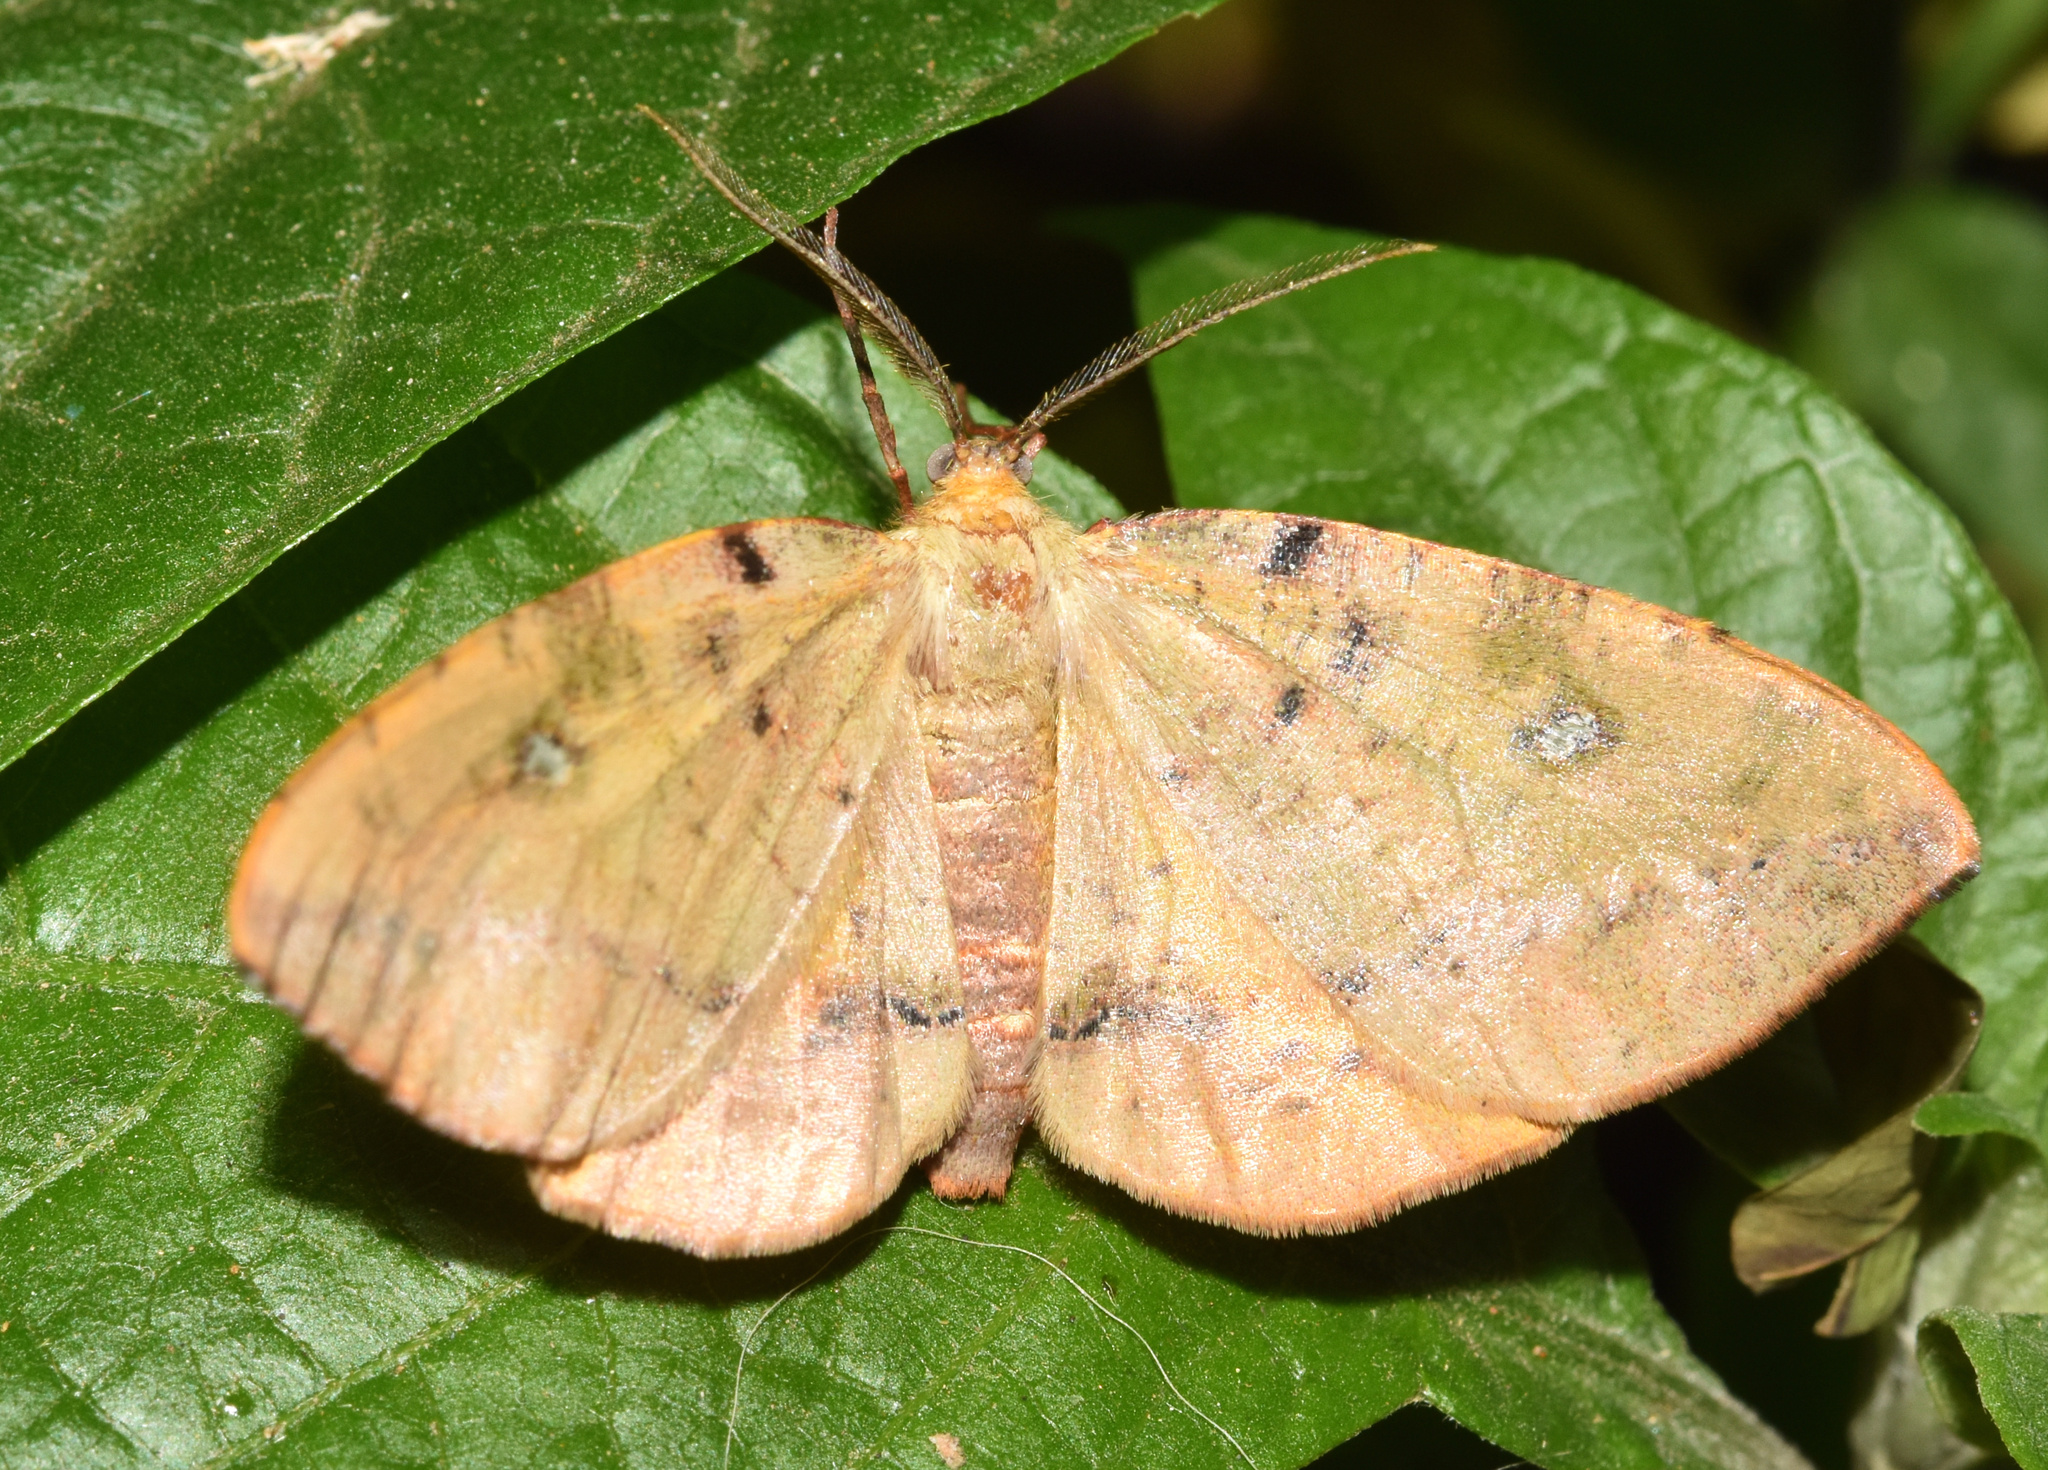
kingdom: Animalia
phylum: Arthropoda
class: Insecta
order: Lepidoptera
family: Geometridae
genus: Omizodes
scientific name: Omizodes ocellata
